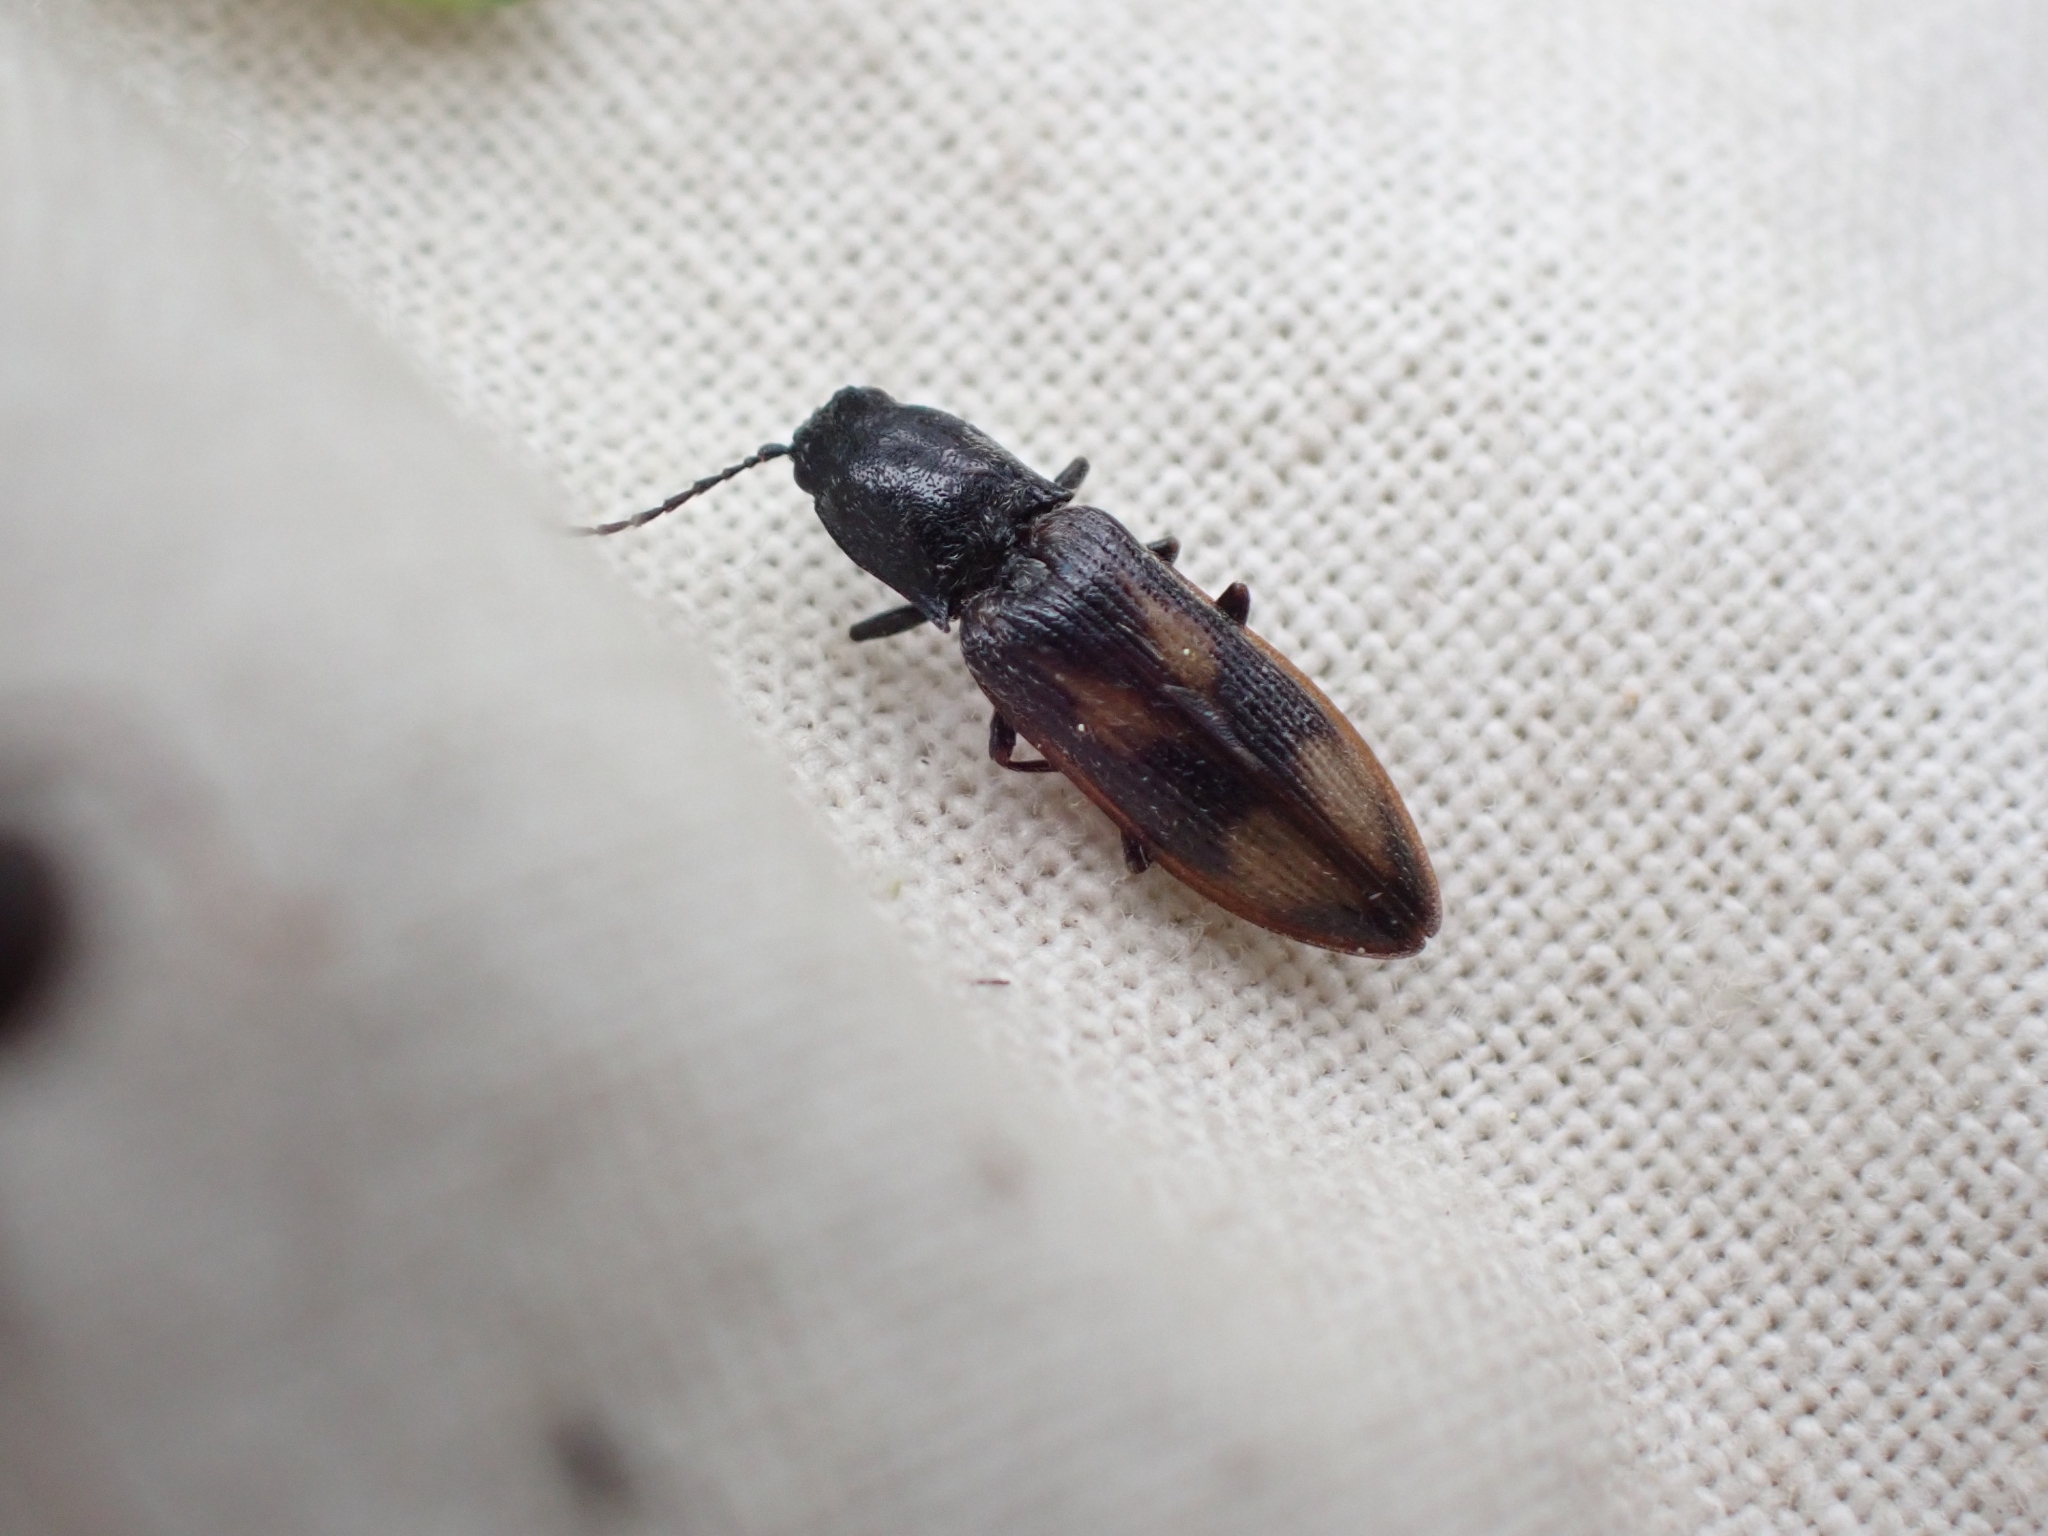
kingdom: Animalia
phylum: Arthropoda
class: Insecta
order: Coleoptera
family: Elateridae
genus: Liotrichus
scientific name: Liotrichus umbripennis
